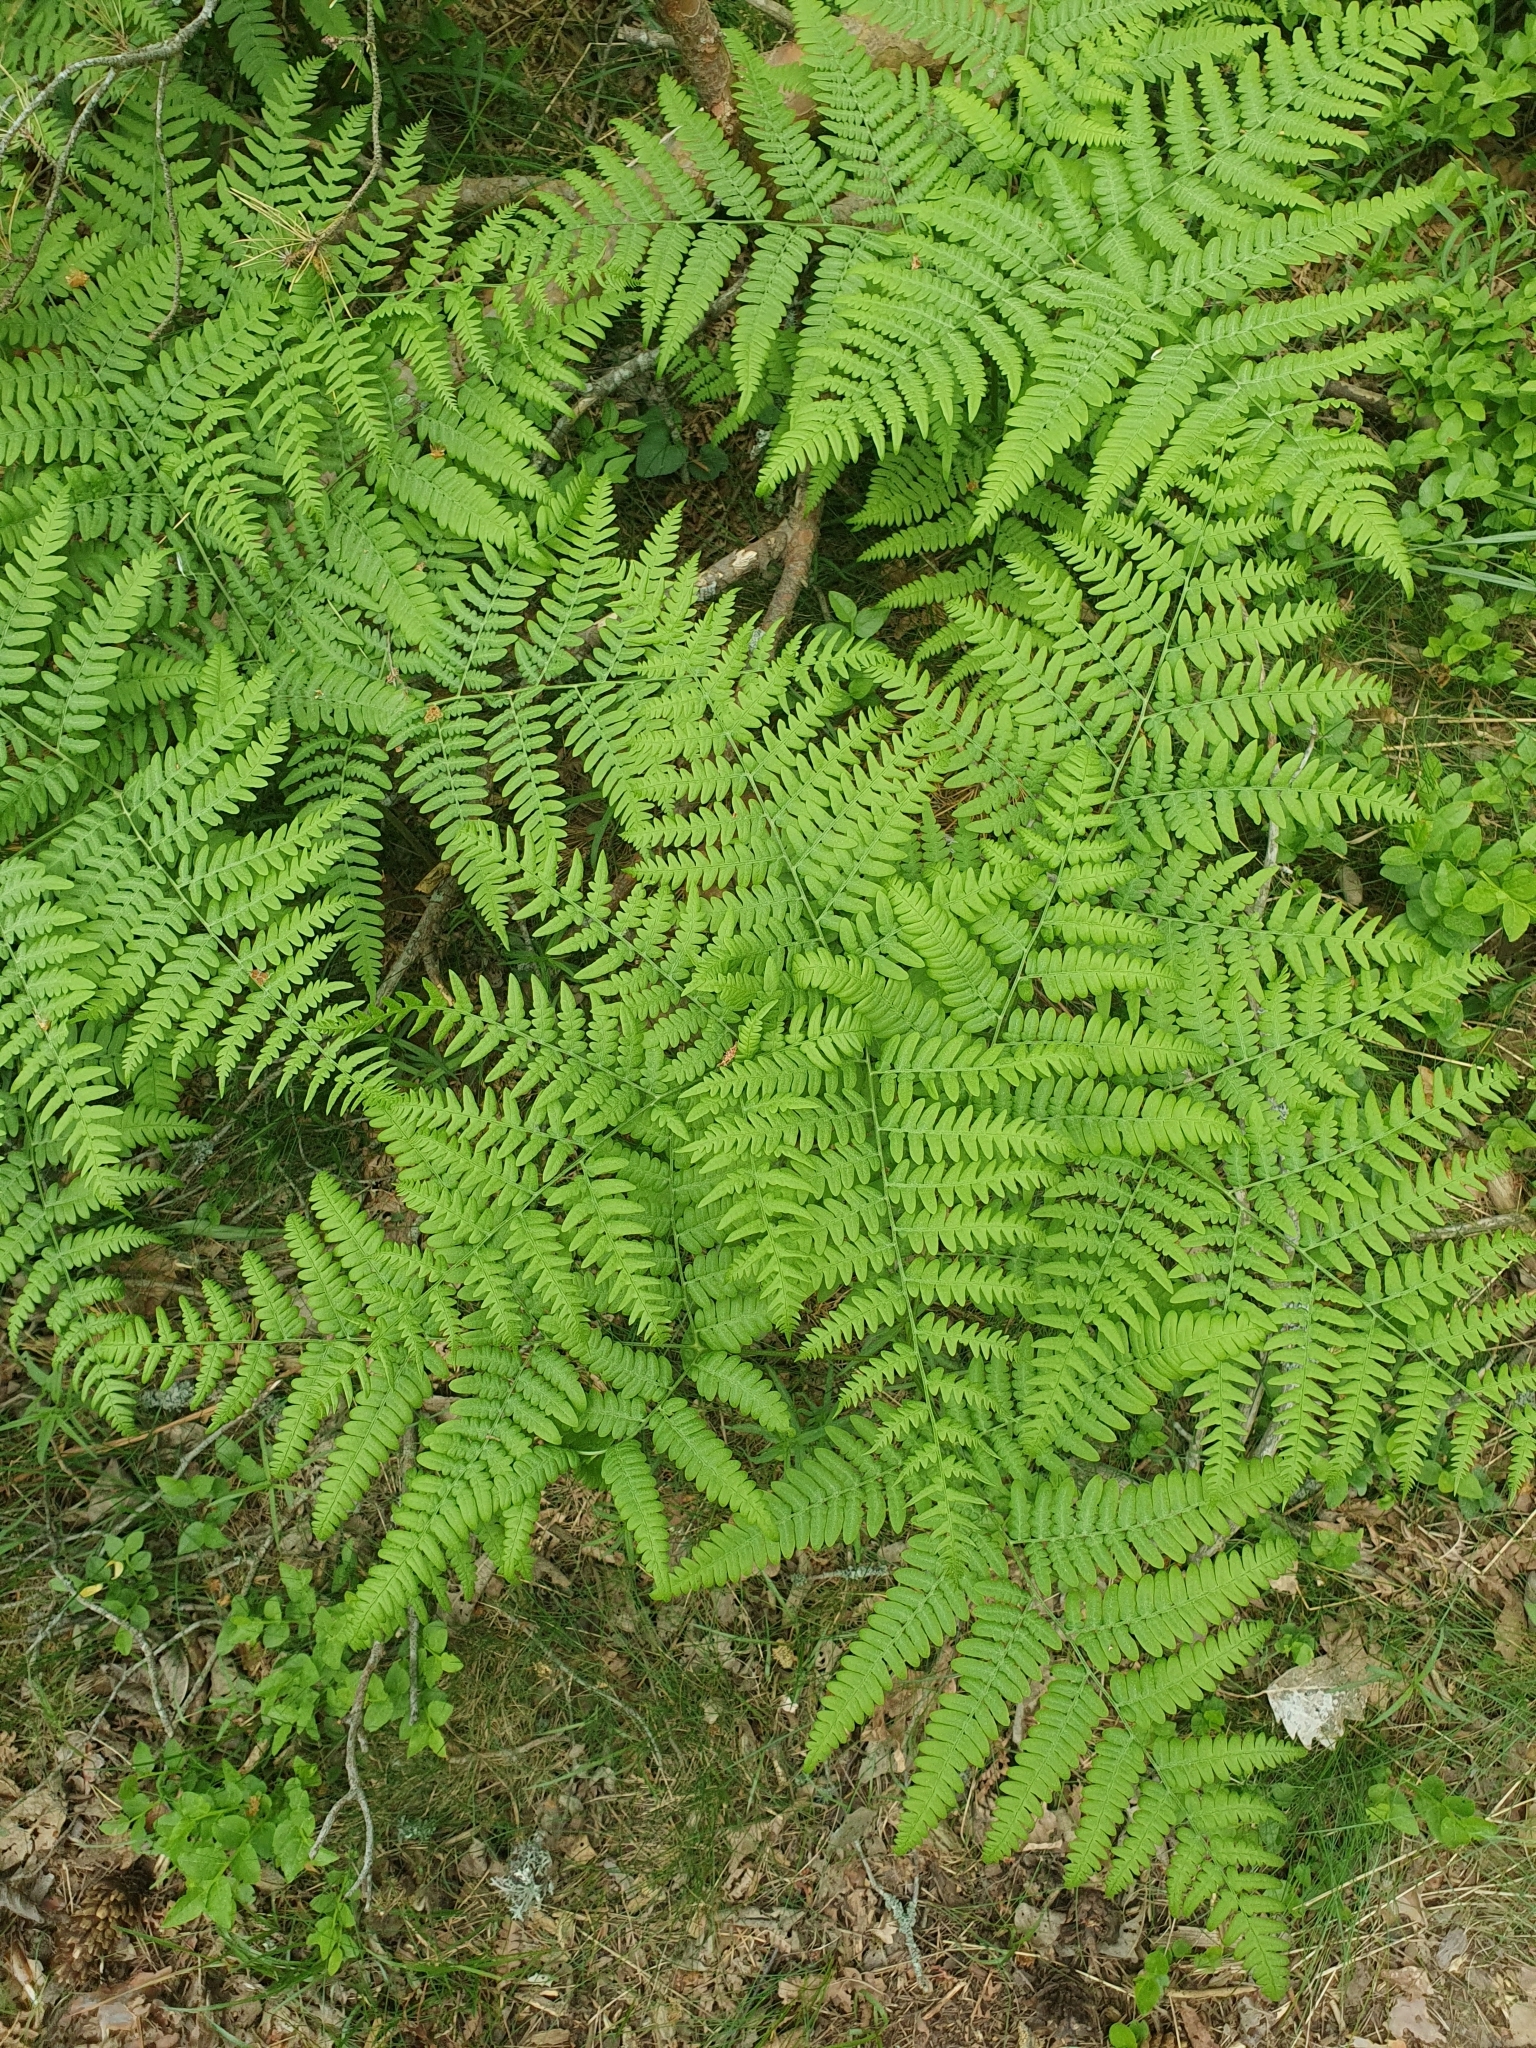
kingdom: Plantae
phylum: Tracheophyta
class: Polypodiopsida
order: Polypodiales
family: Dennstaedtiaceae
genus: Pteridium
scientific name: Pteridium aquilinum
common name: Bracken
